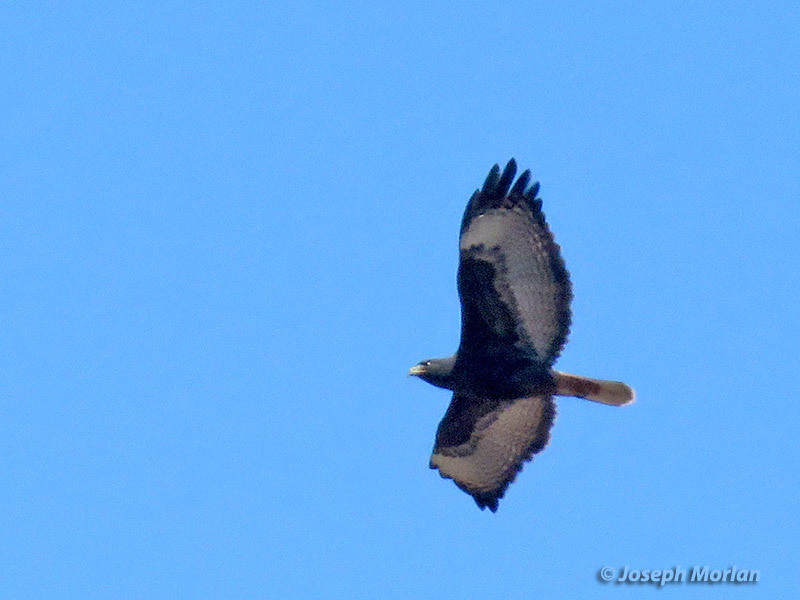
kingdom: Animalia
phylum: Chordata
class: Aves
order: Accipitriformes
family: Accipitridae
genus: Buteo
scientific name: Buteo jamaicensis
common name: Red-tailed hawk
